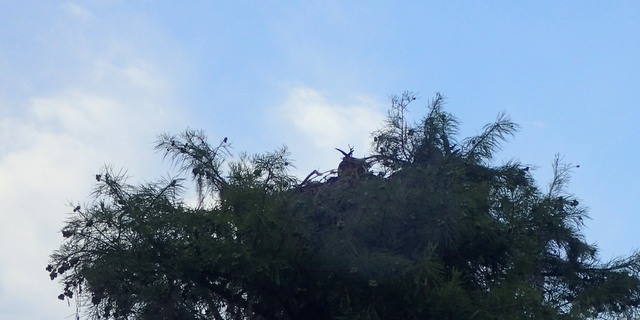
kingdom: Animalia
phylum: Chordata
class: Aves
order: Accipitriformes
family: Pandionidae
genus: Pandion
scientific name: Pandion haliaetus
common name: Osprey
